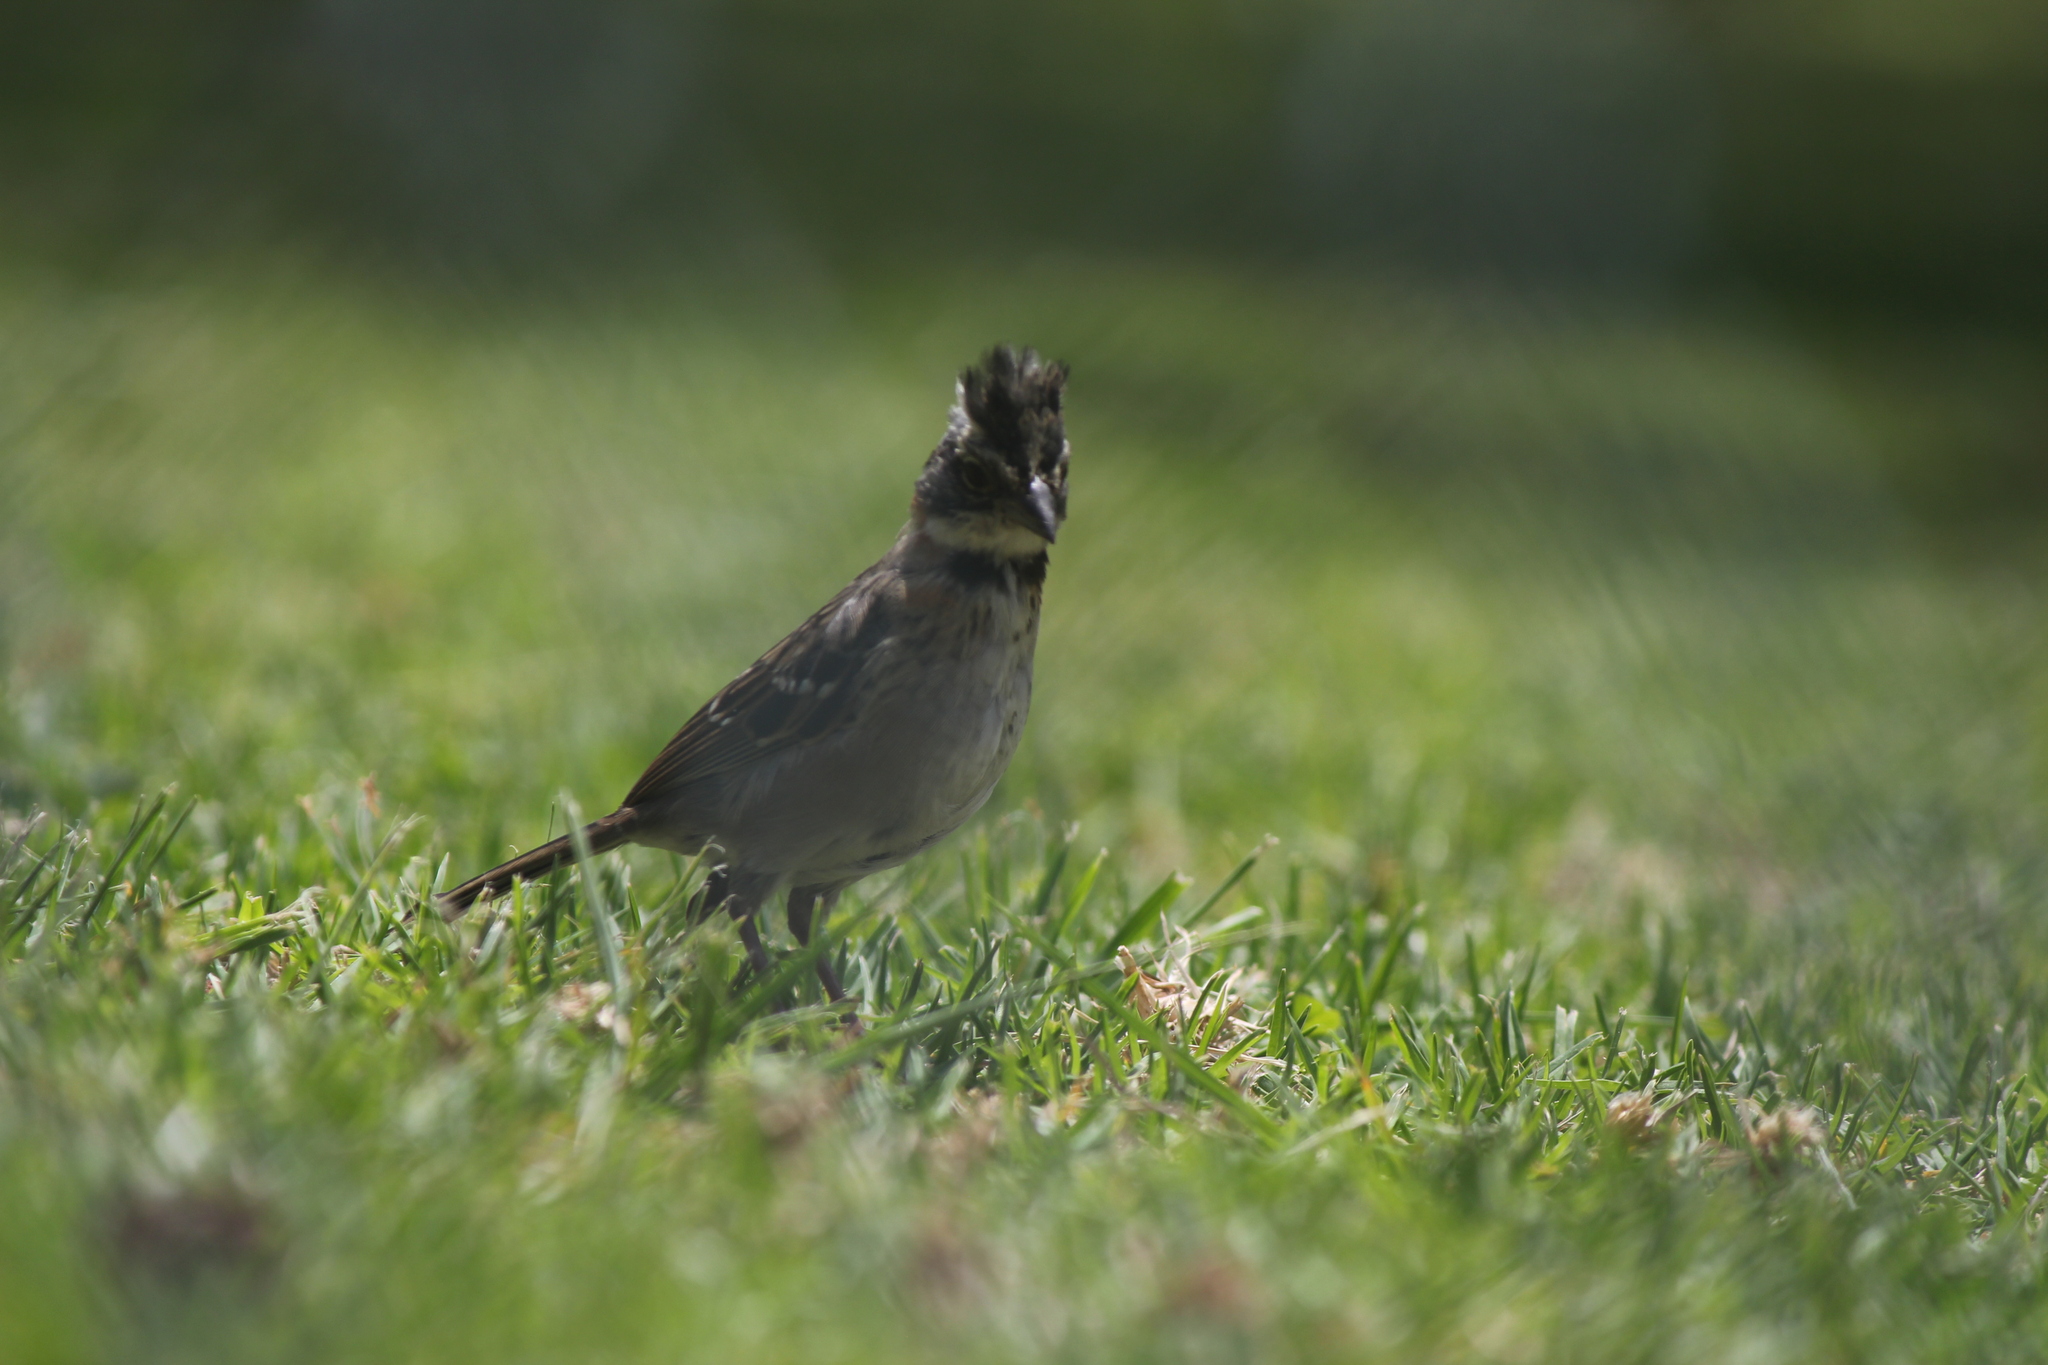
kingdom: Animalia
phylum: Chordata
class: Aves
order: Passeriformes
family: Passerellidae
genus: Zonotrichia
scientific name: Zonotrichia capensis
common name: Rufous-collared sparrow
